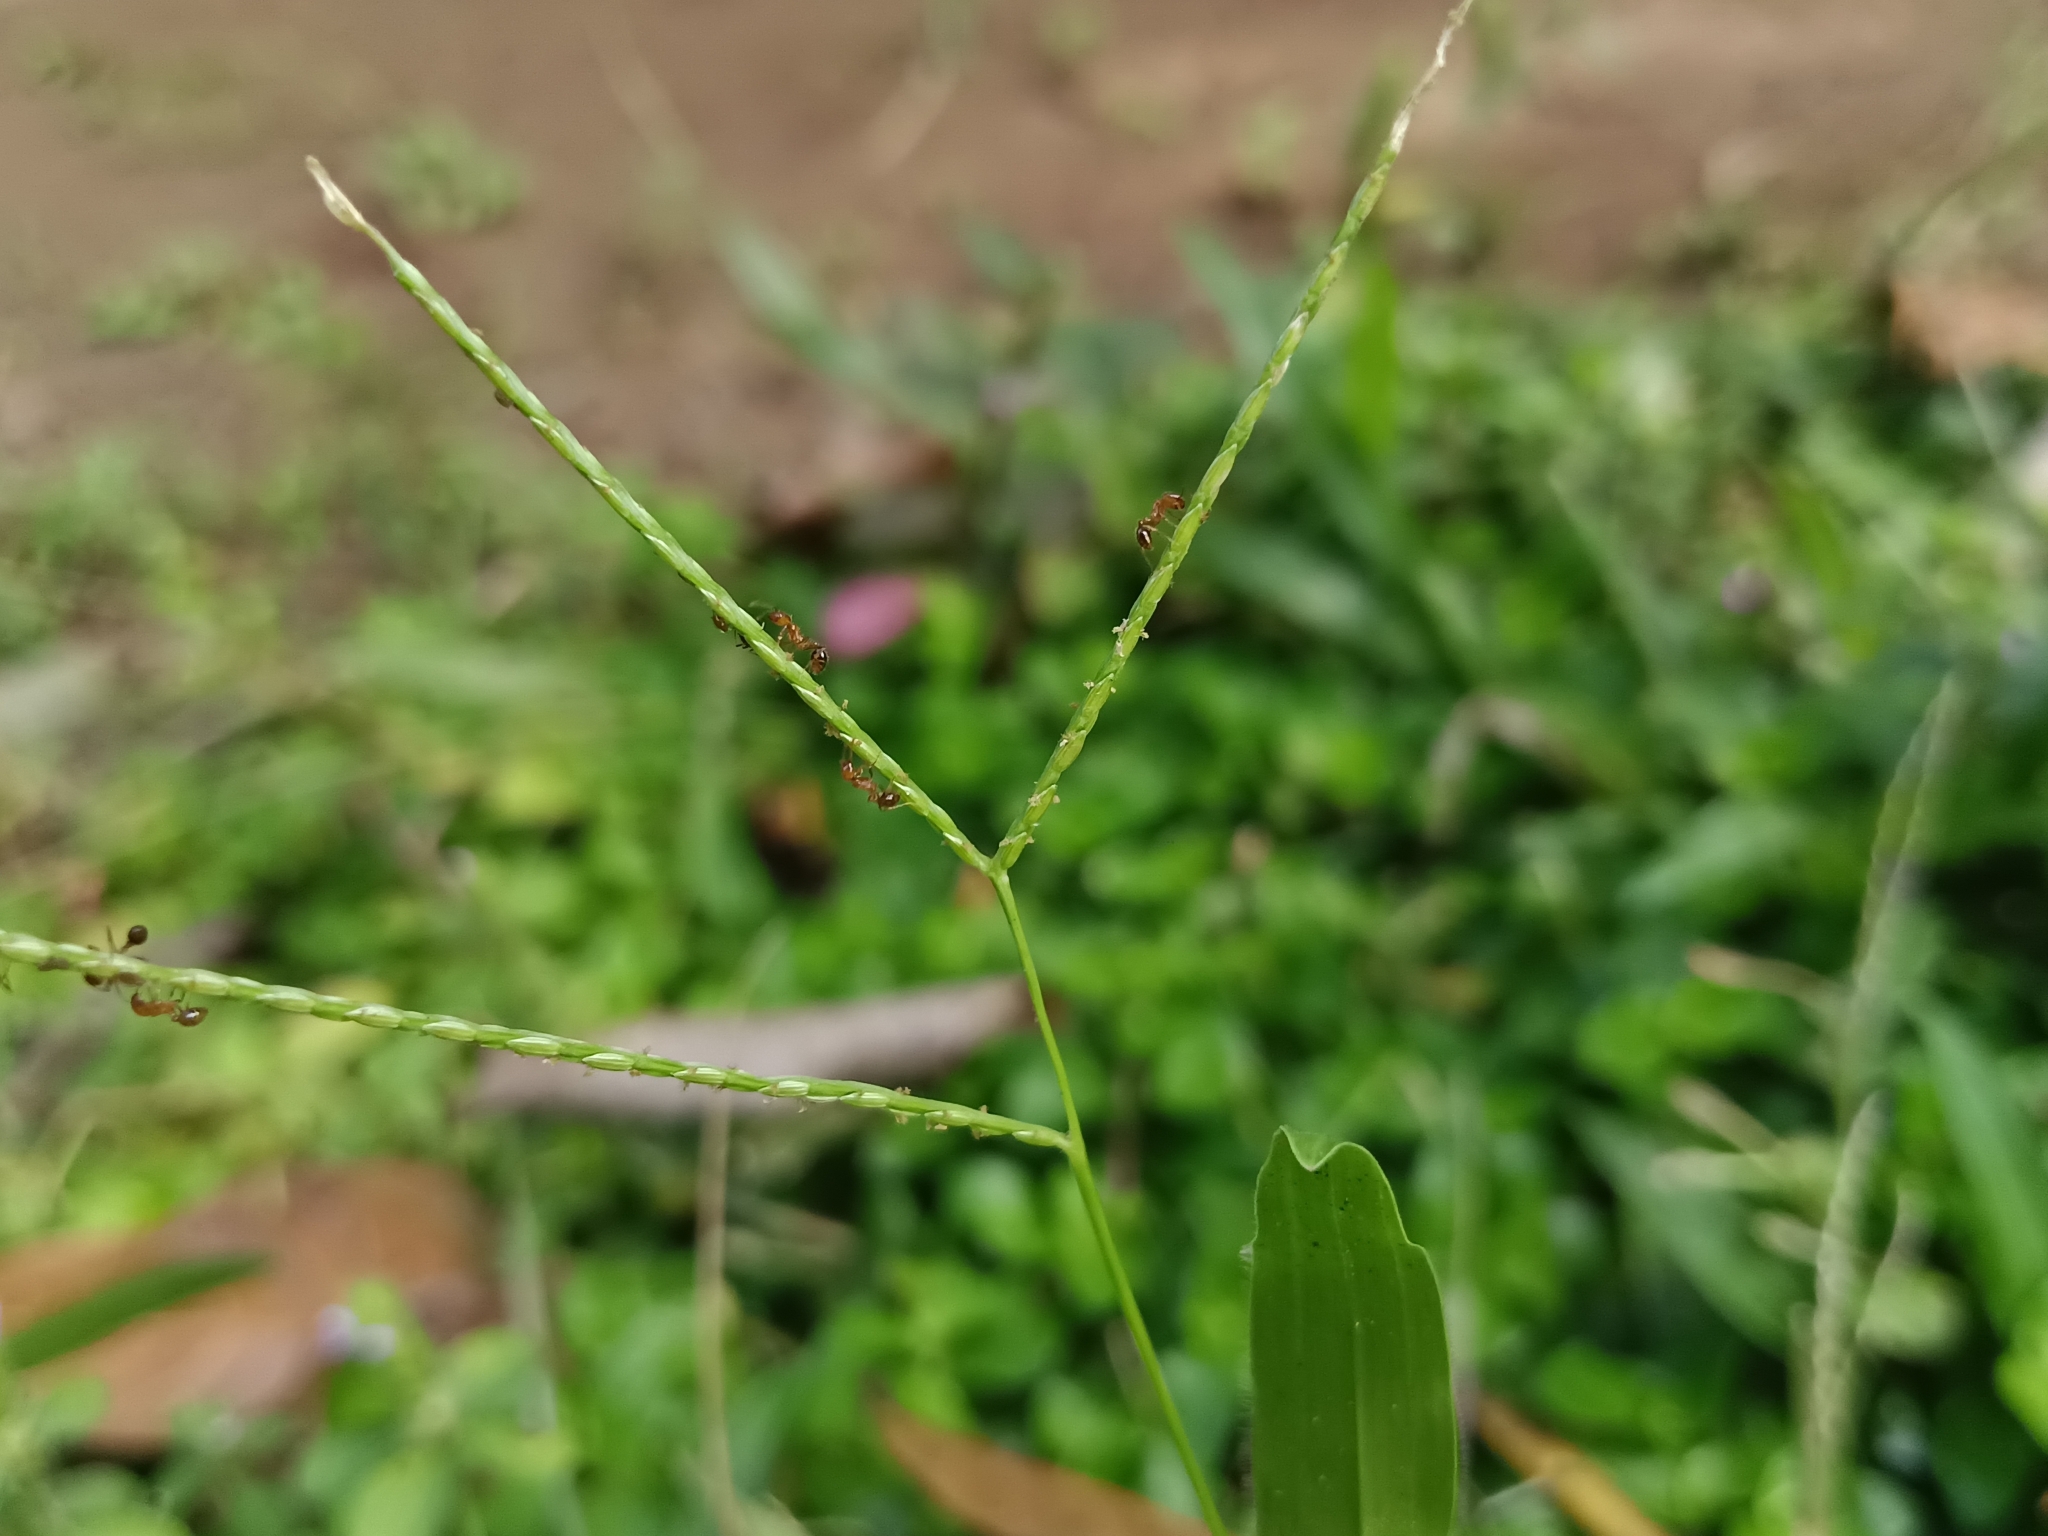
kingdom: Animalia
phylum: Arthropoda
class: Insecta
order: Hymenoptera
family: Formicidae
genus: Solenopsis
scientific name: Solenopsis geminata
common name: Tropical fire ant
